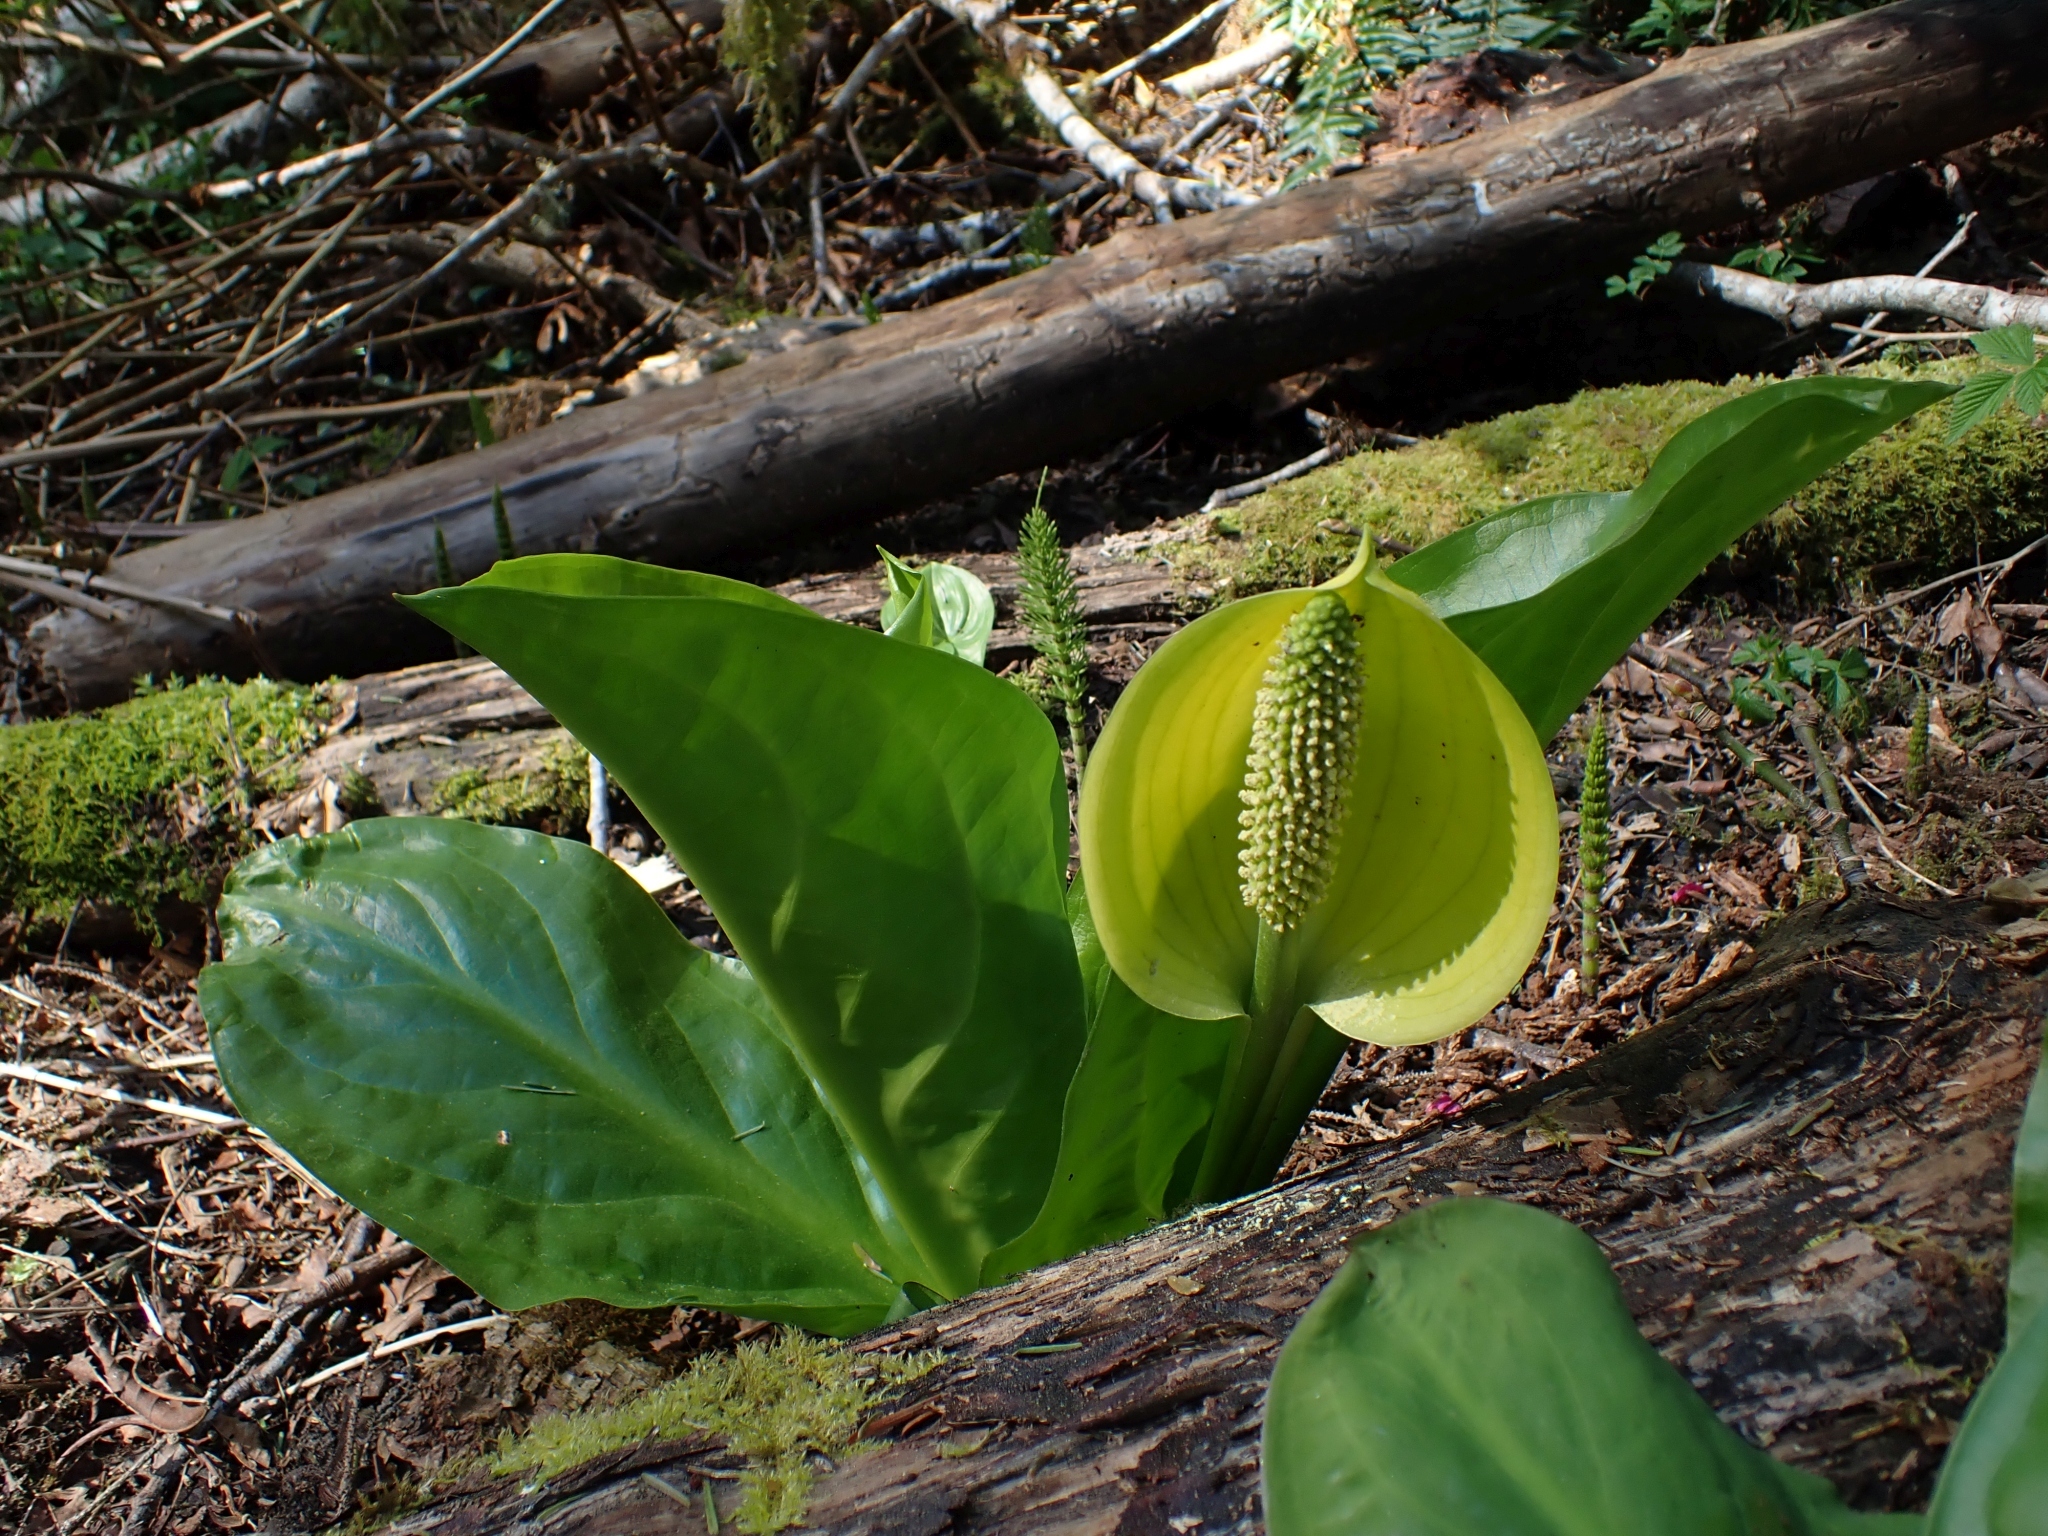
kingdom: Plantae
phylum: Tracheophyta
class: Liliopsida
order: Alismatales
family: Araceae
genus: Lysichiton
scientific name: Lysichiton americanus
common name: American skunk cabbage
